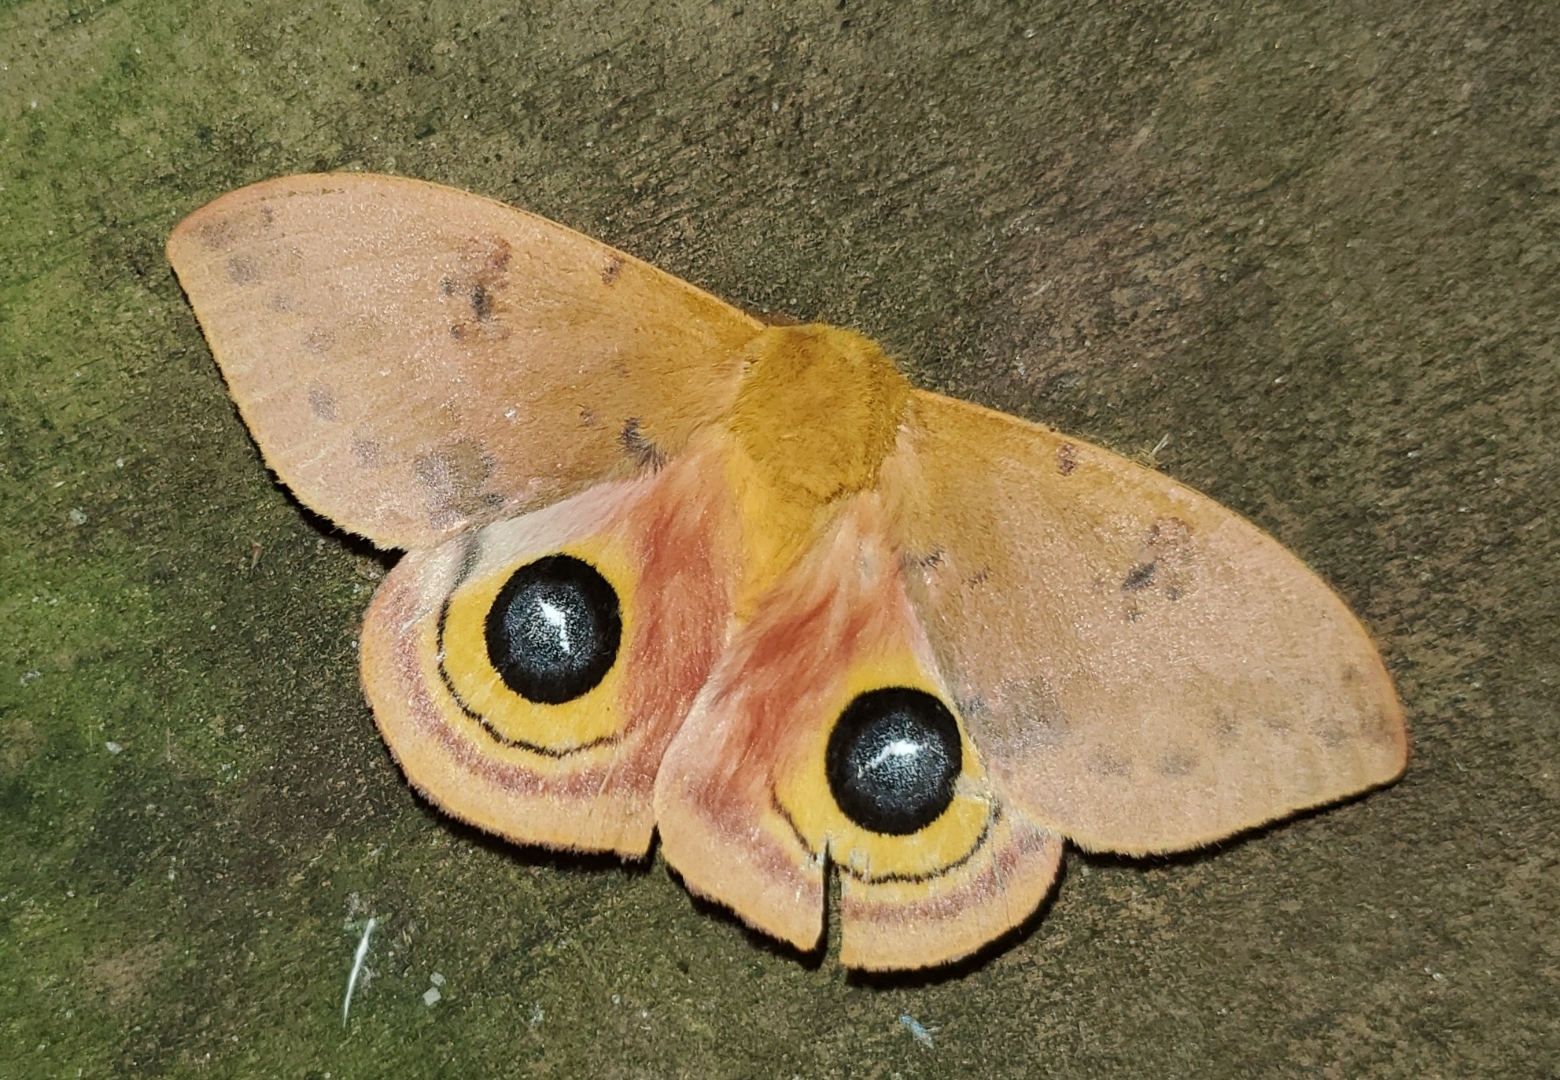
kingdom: Animalia
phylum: Arthropoda
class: Insecta
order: Lepidoptera
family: Saturniidae
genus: Automeris
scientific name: Automeris io
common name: Io moth
